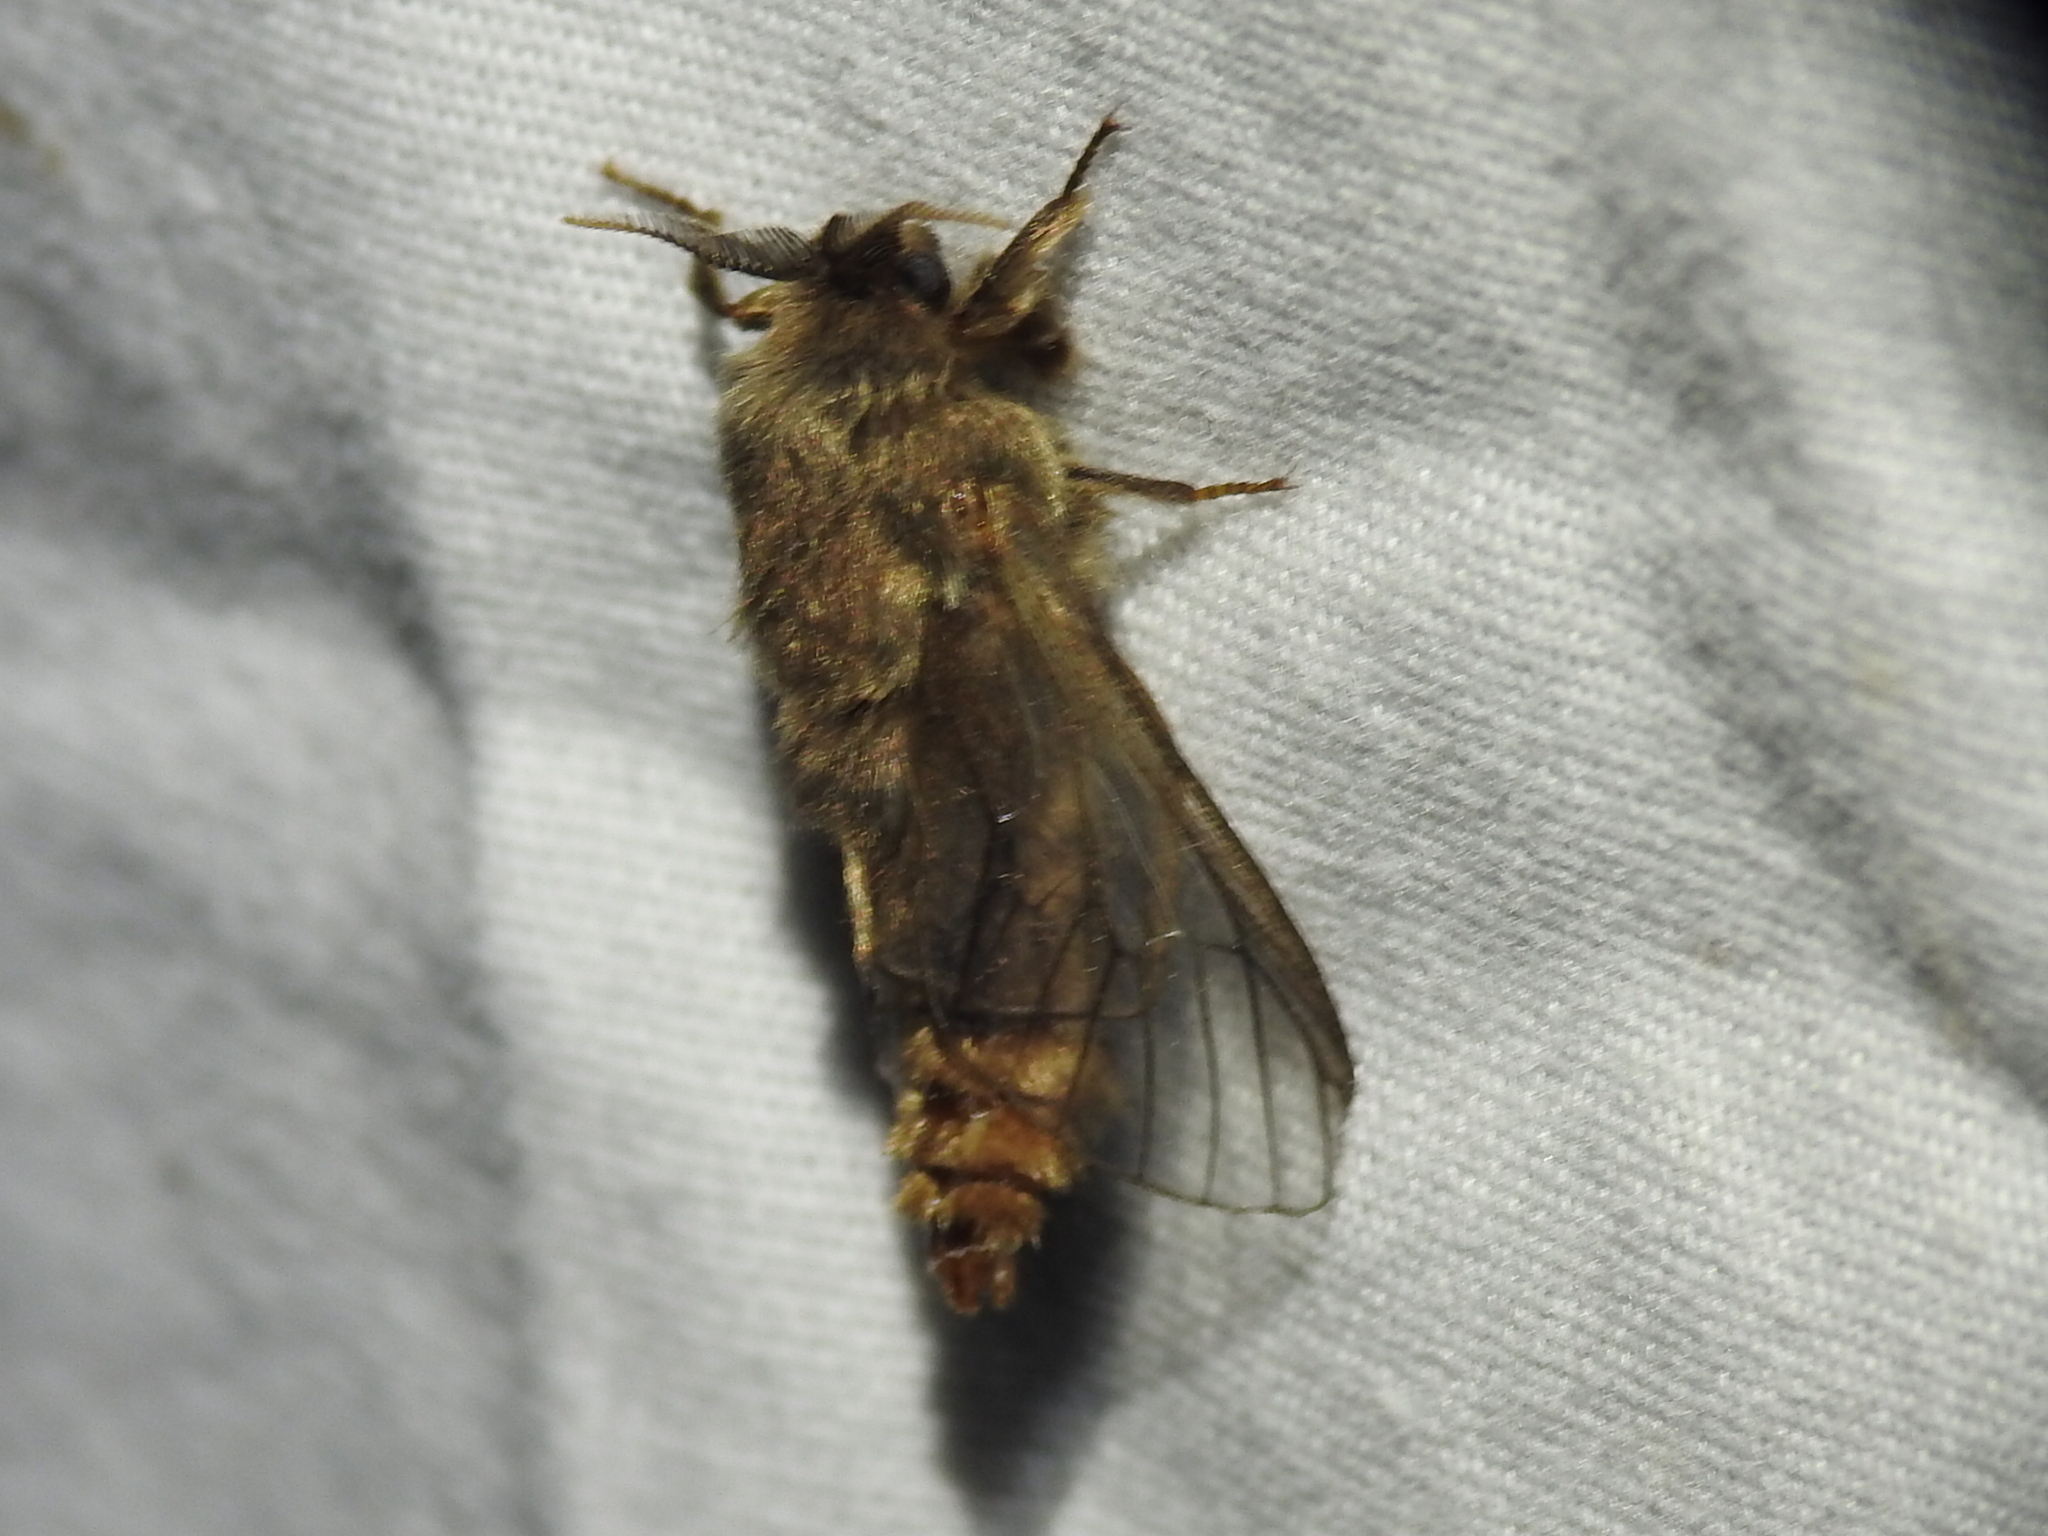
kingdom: Animalia
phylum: Arthropoda
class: Insecta
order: Lepidoptera
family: Psychidae
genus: Thyridopteryx
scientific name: Thyridopteryx ephemeraeformis
